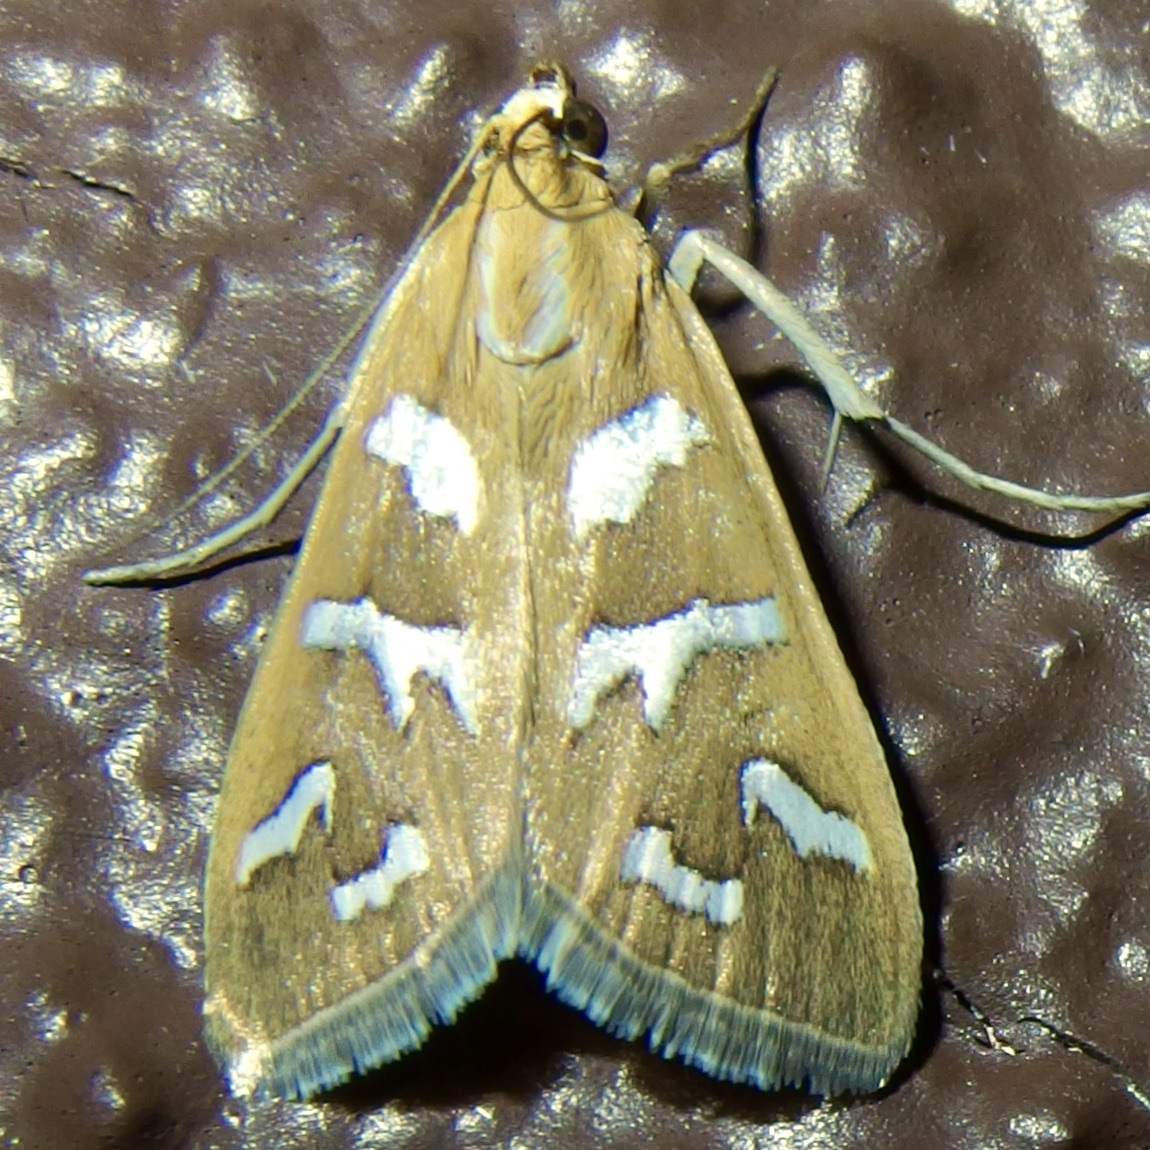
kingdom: Animalia
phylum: Arthropoda
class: Insecta
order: Lepidoptera
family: Crambidae
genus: Diastictis
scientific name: Diastictis fracturalis
